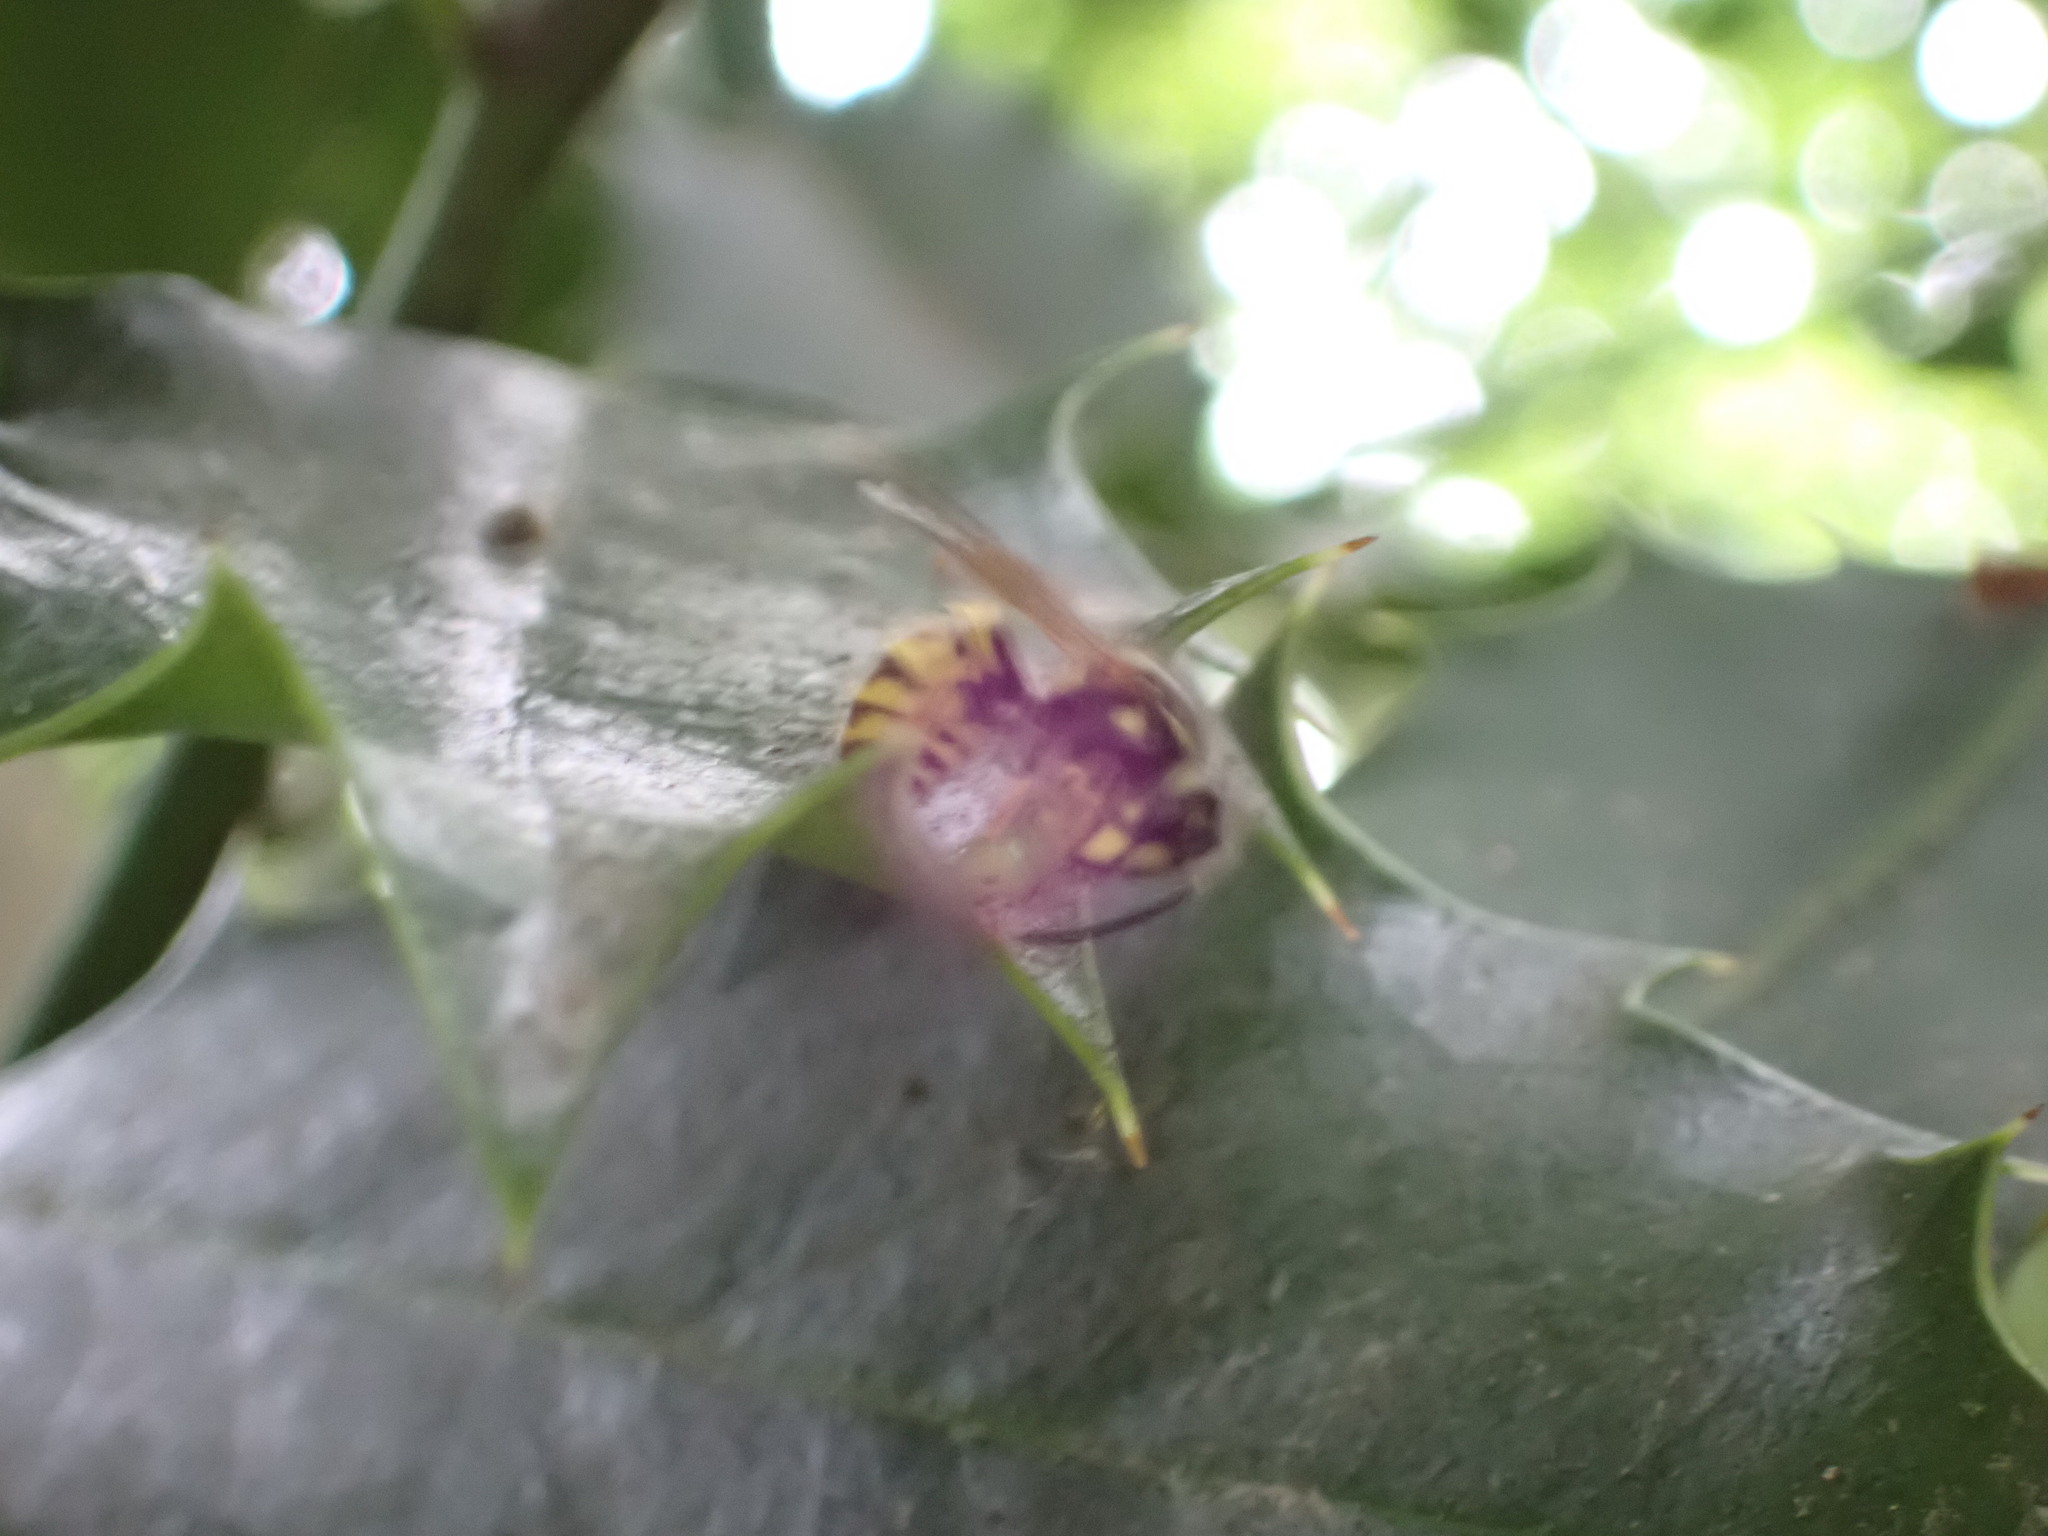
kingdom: Animalia
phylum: Arthropoda
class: Insecta
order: Hymenoptera
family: Vespidae
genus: Vespula
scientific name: Vespula vulgaris
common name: Common wasp
